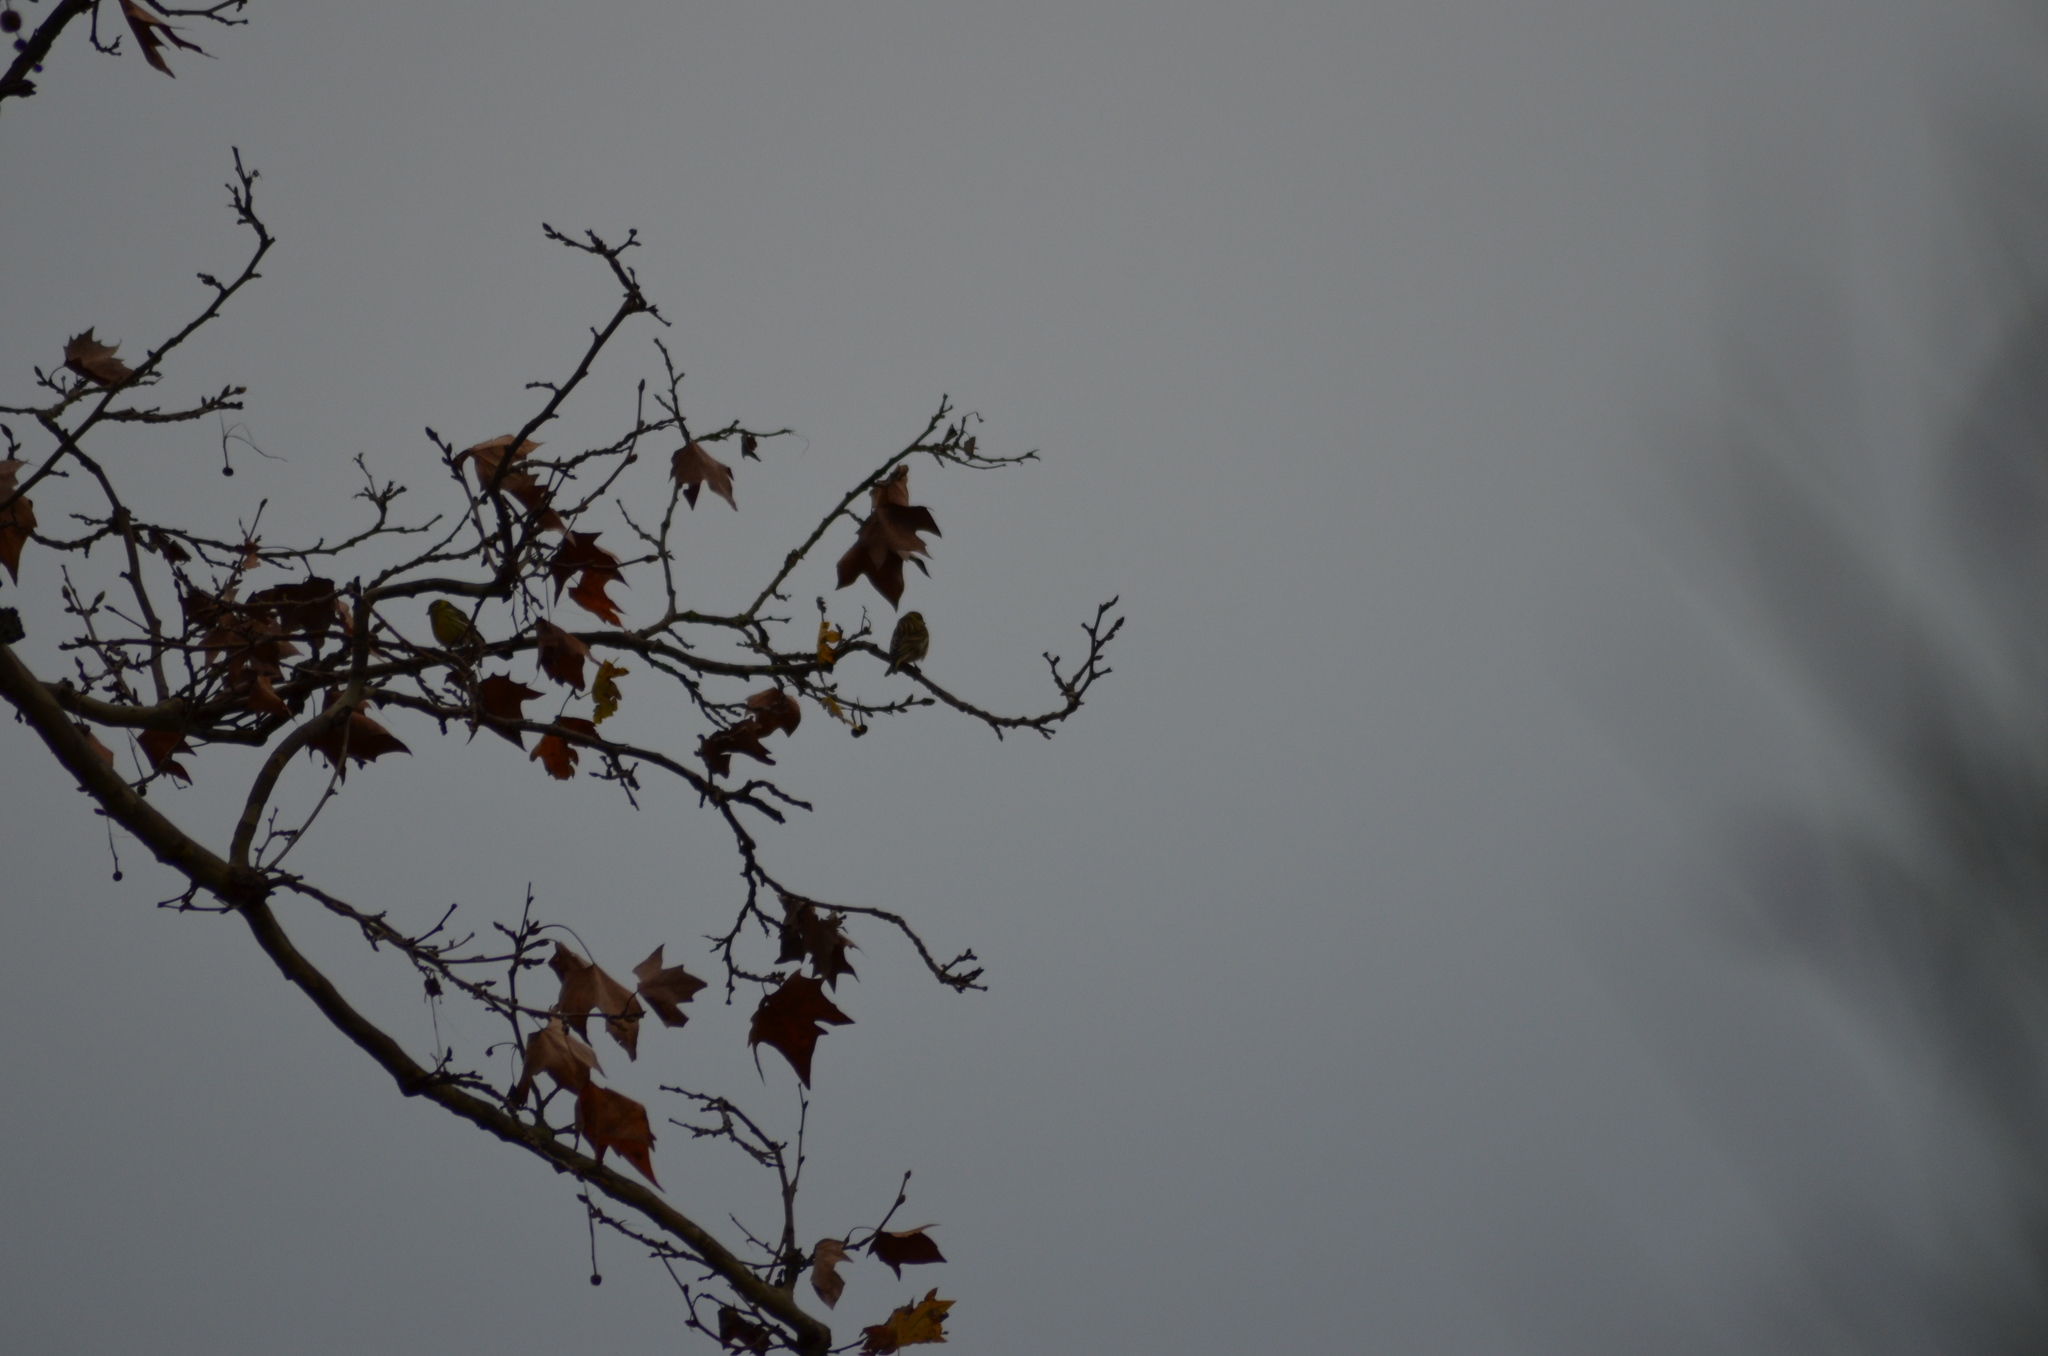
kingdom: Animalia
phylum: Chordata
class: Aves
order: Passeriformes
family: Fringillidae
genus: Serinus
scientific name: Serinus serinus
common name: European serin
